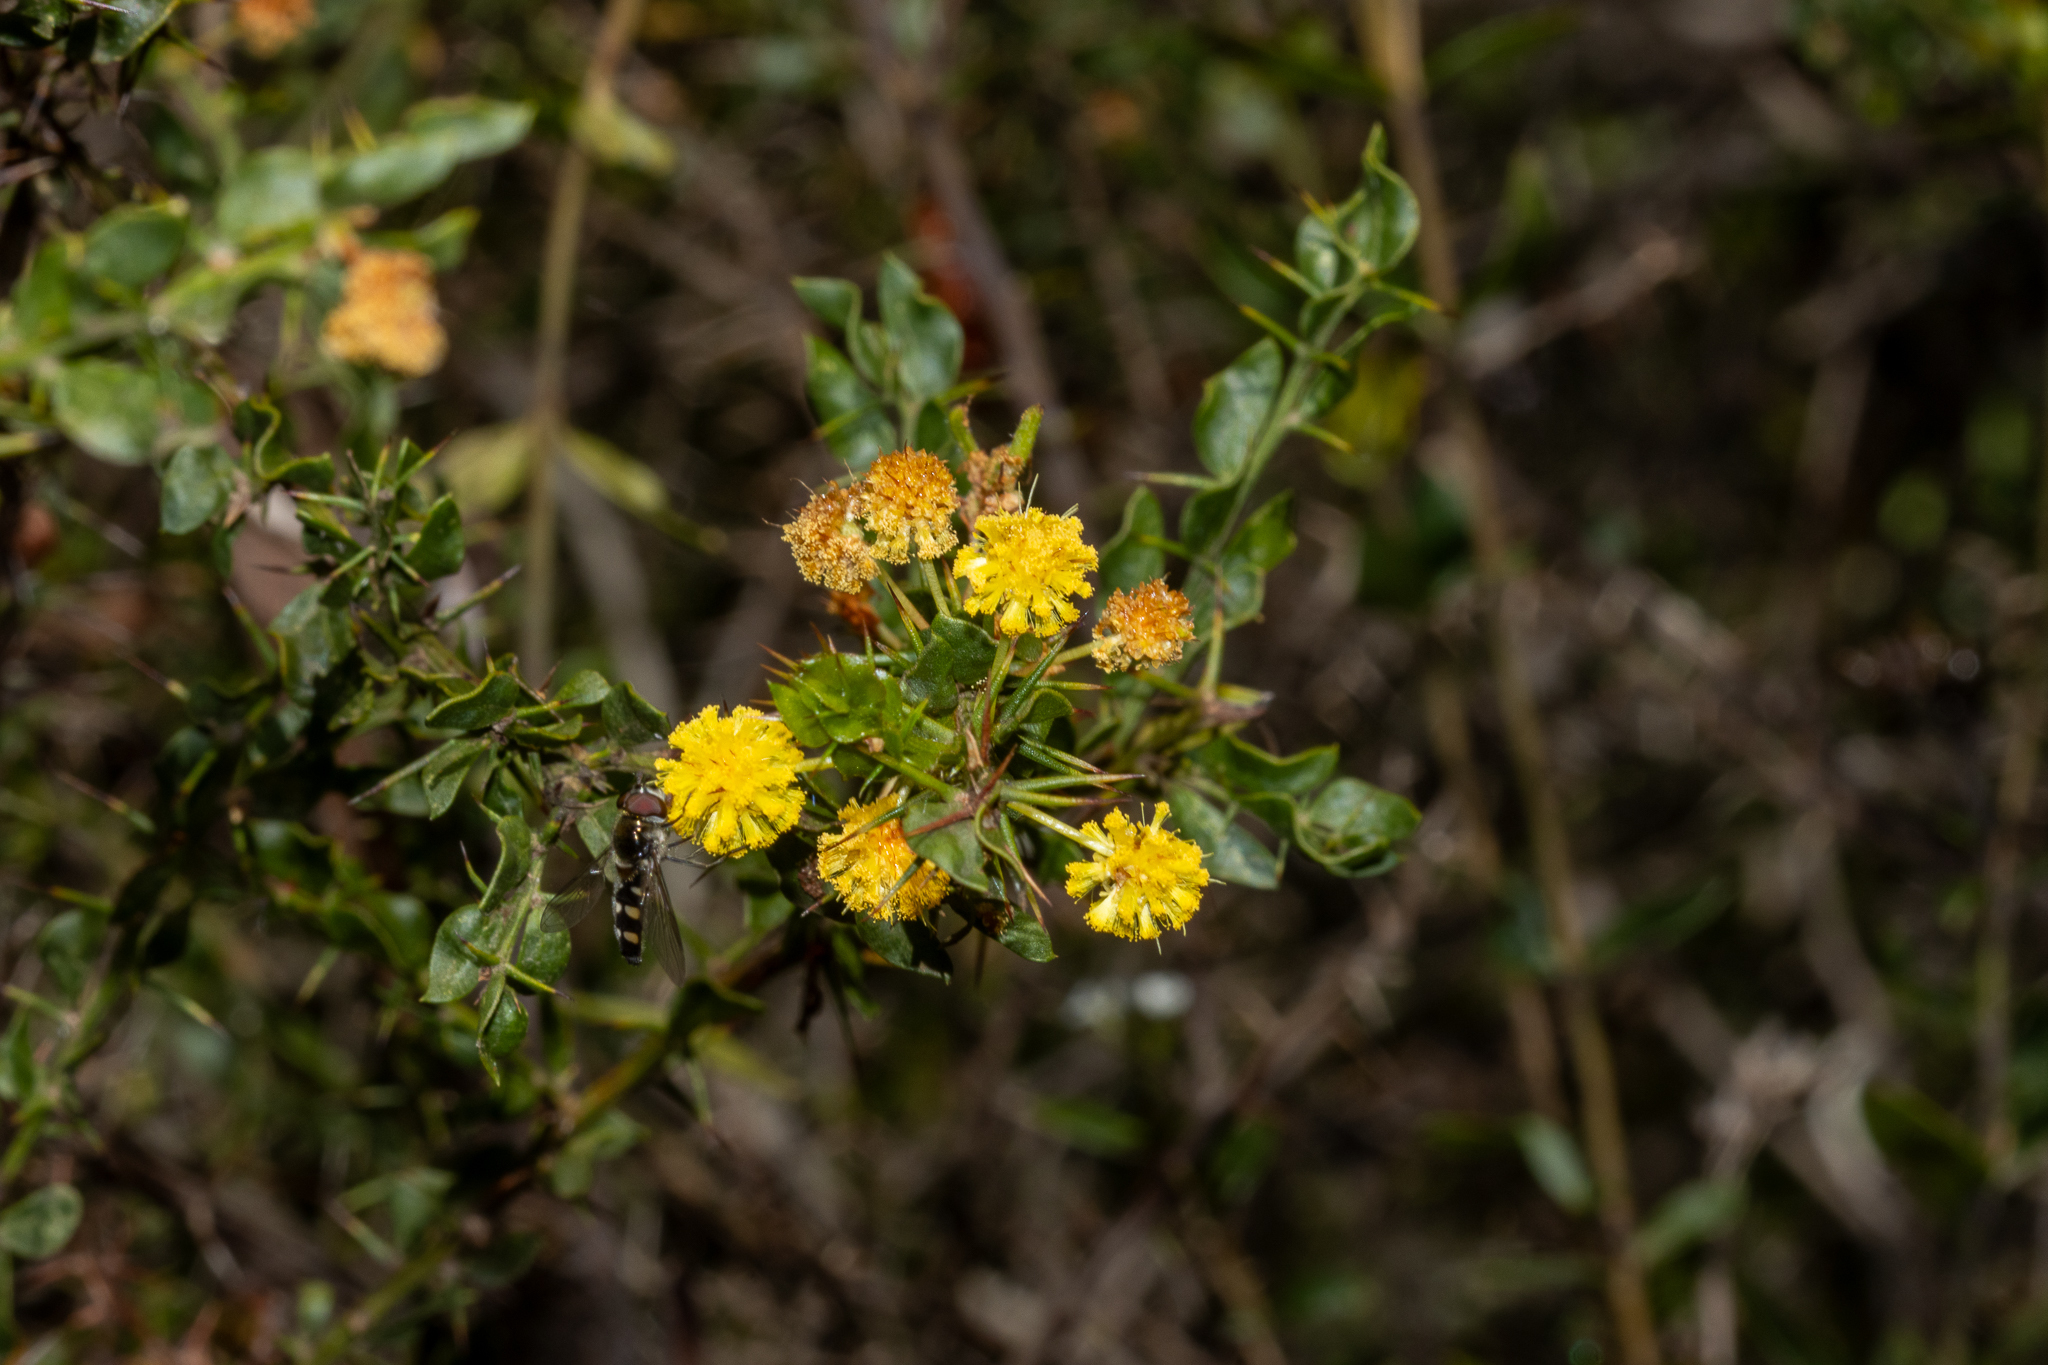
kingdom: Plantae
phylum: Tracheophyta
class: Magnoliopsida
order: Fabales
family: Fabaceae
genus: Acacia
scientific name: Acacia paradoxa
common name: Paradox acacia
